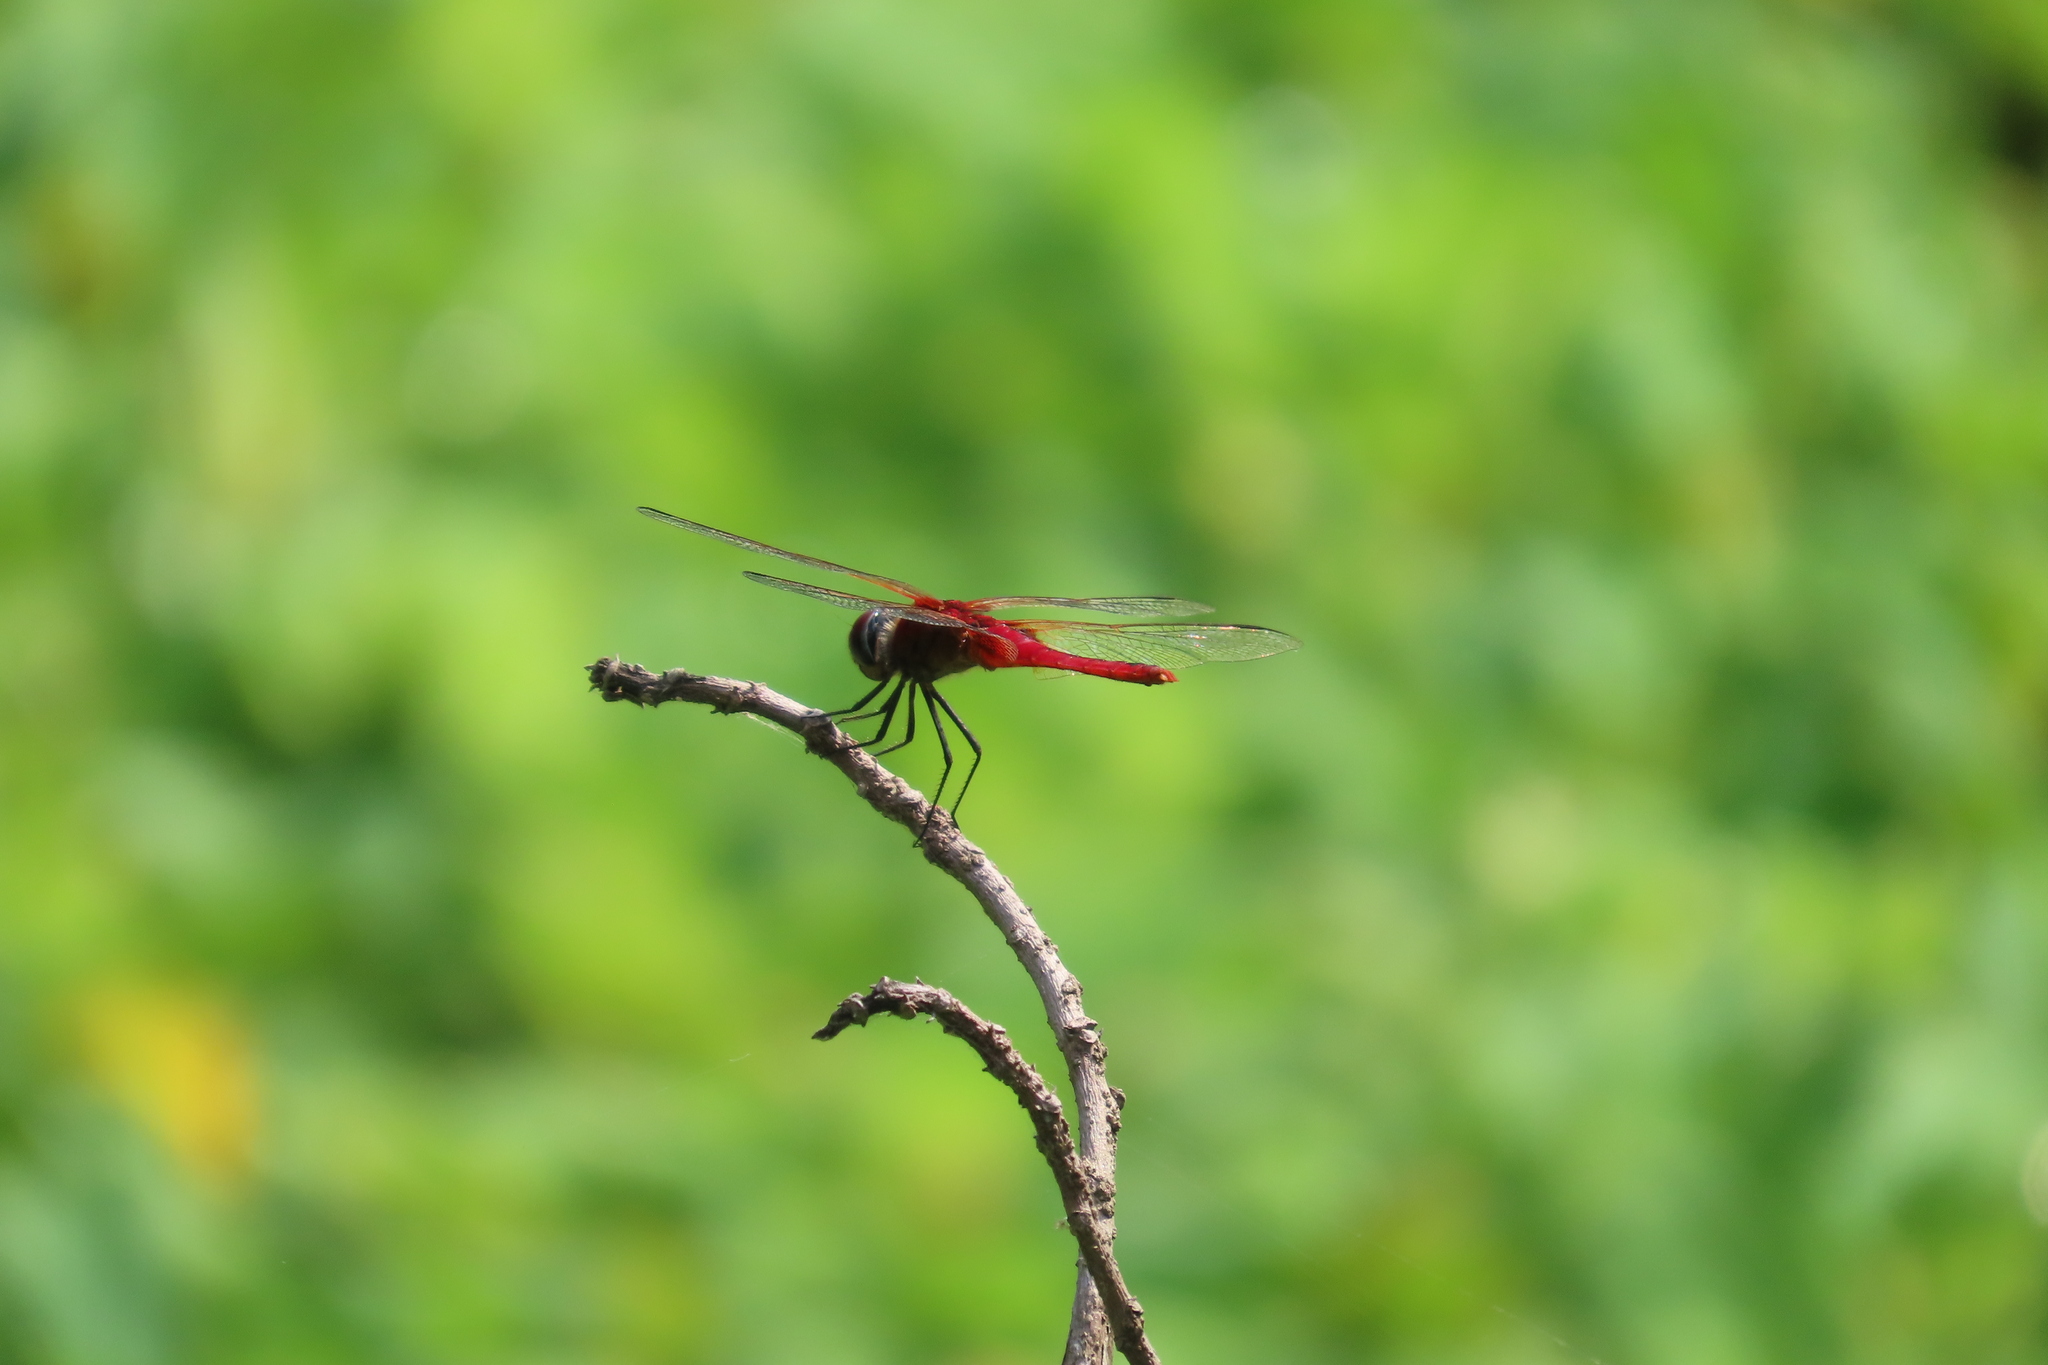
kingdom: Animalia
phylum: Arthropoda
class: Insecta
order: Odonata
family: Libellulidae
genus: Urothemis
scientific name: Urothemis signata
